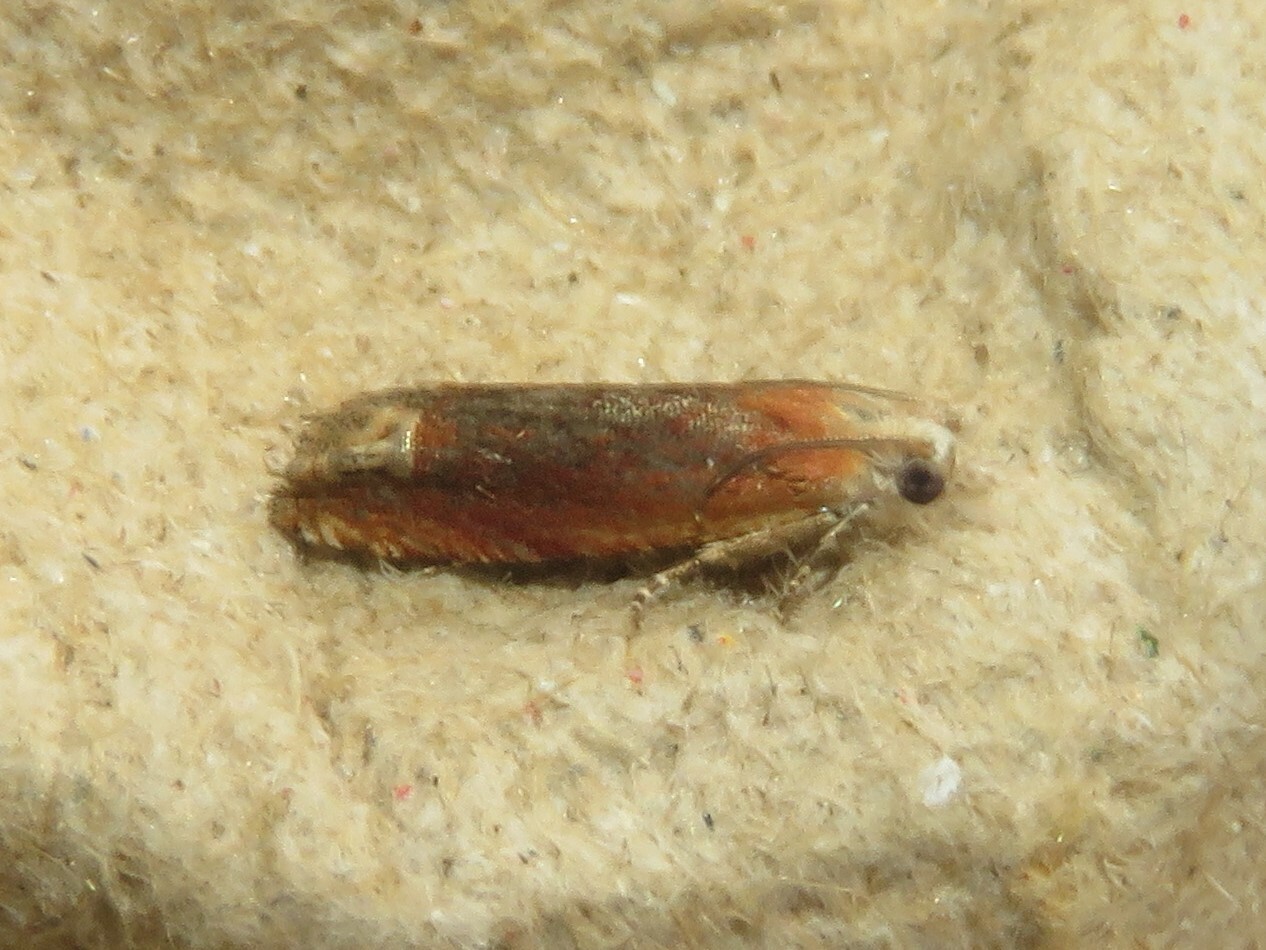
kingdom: Animalia
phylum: Arthropoda
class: Insecta
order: Lepidoptera
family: Tortricidae
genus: Eucosma
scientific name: Eucosma raracana
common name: Reddish eucosma moth
